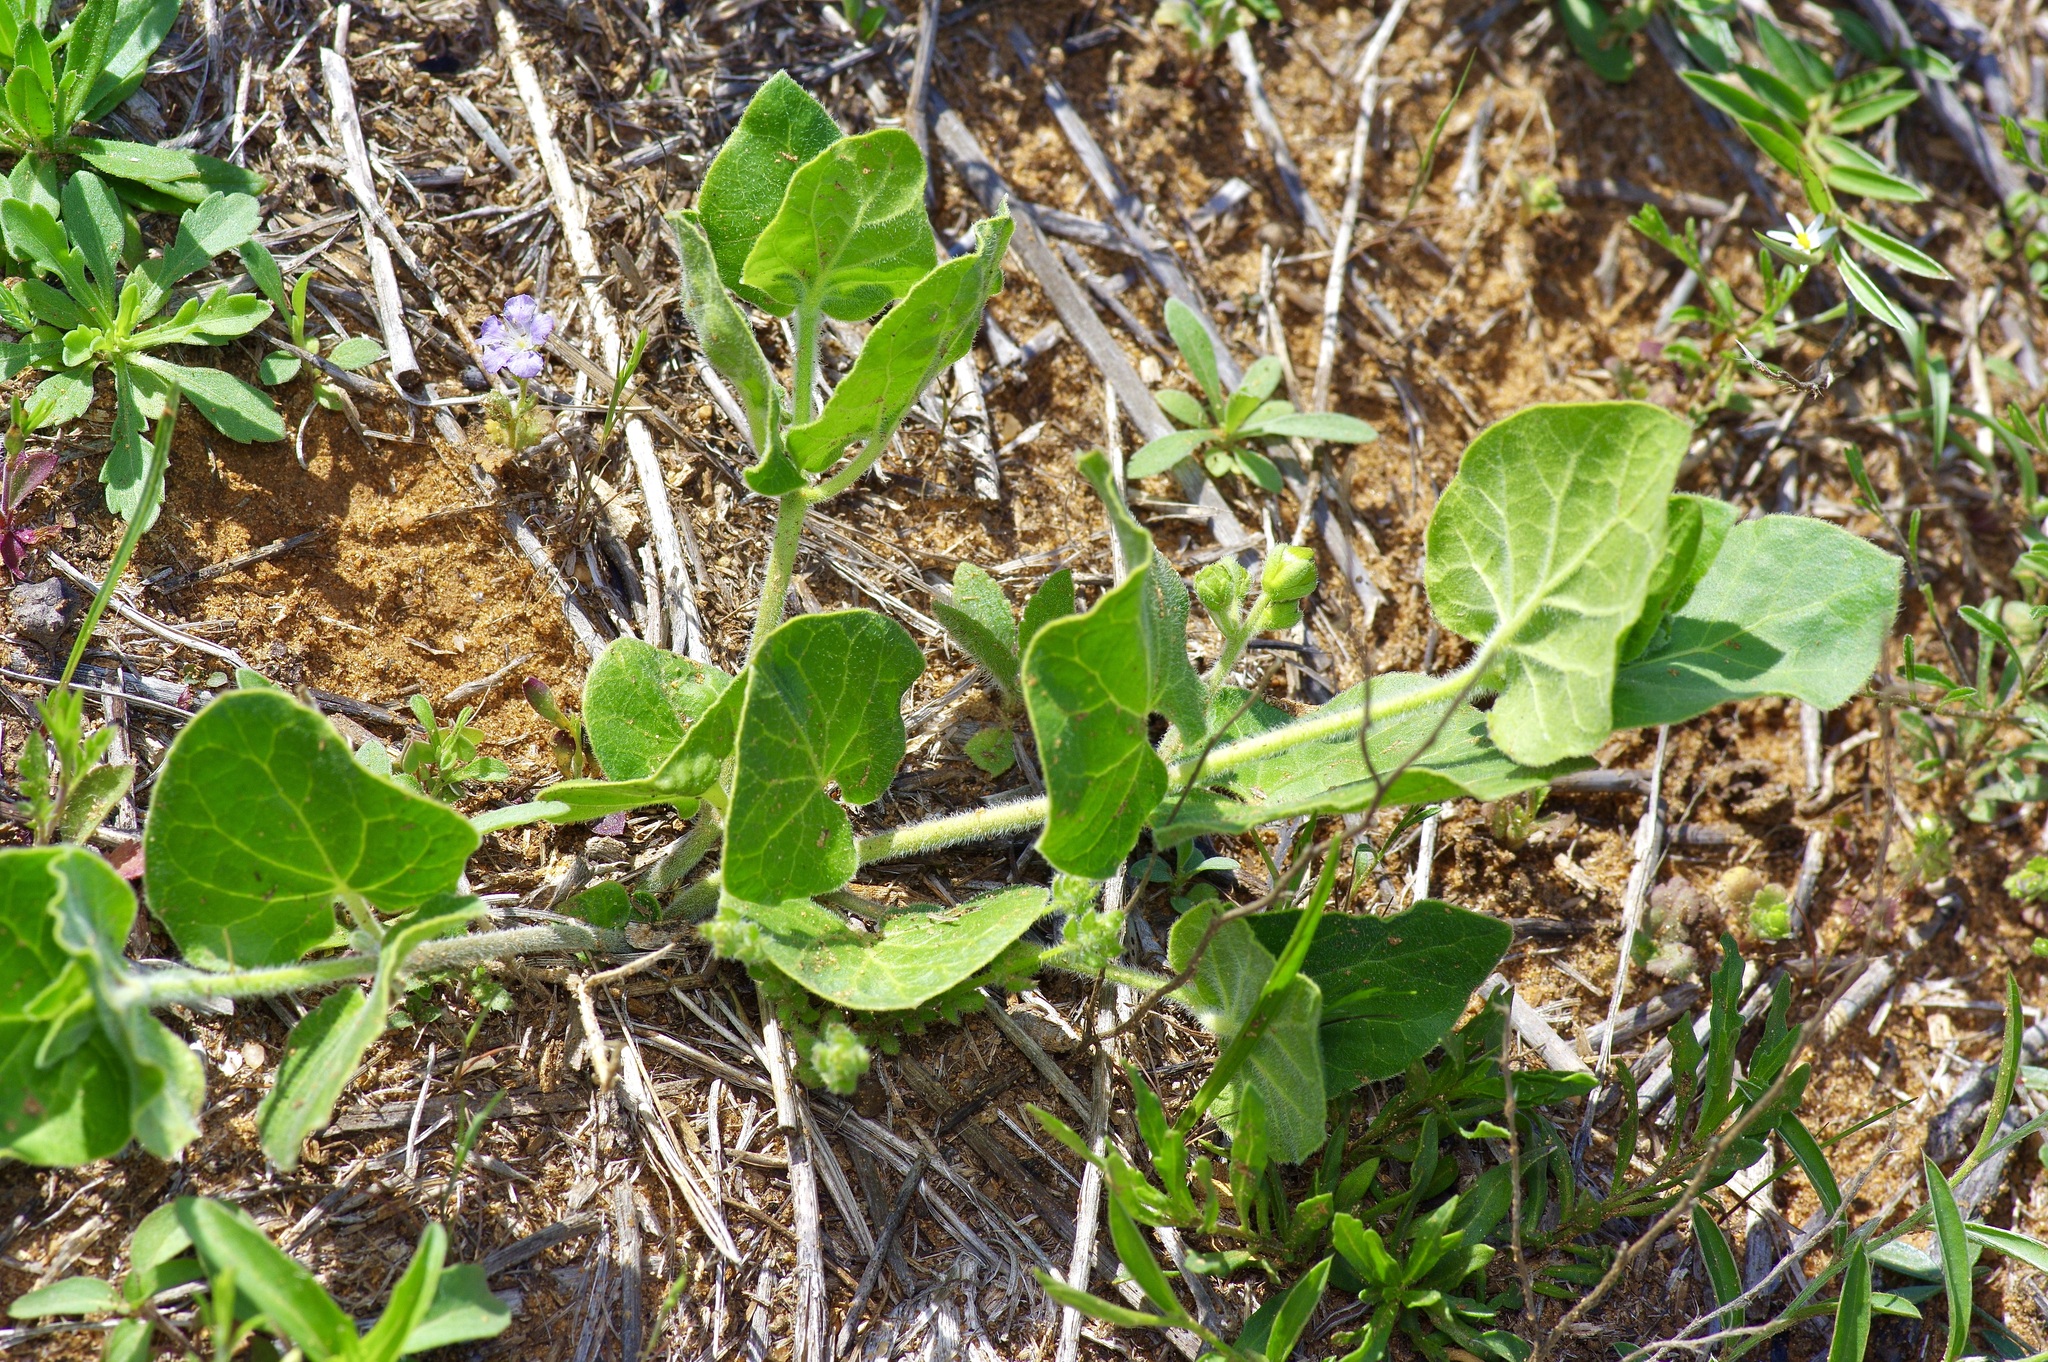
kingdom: Plantae
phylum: Tracheophyta
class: Magnoliopsida
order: Gentianales
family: Apocynaceae
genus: Matelea
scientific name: Matelea cynanchoides
